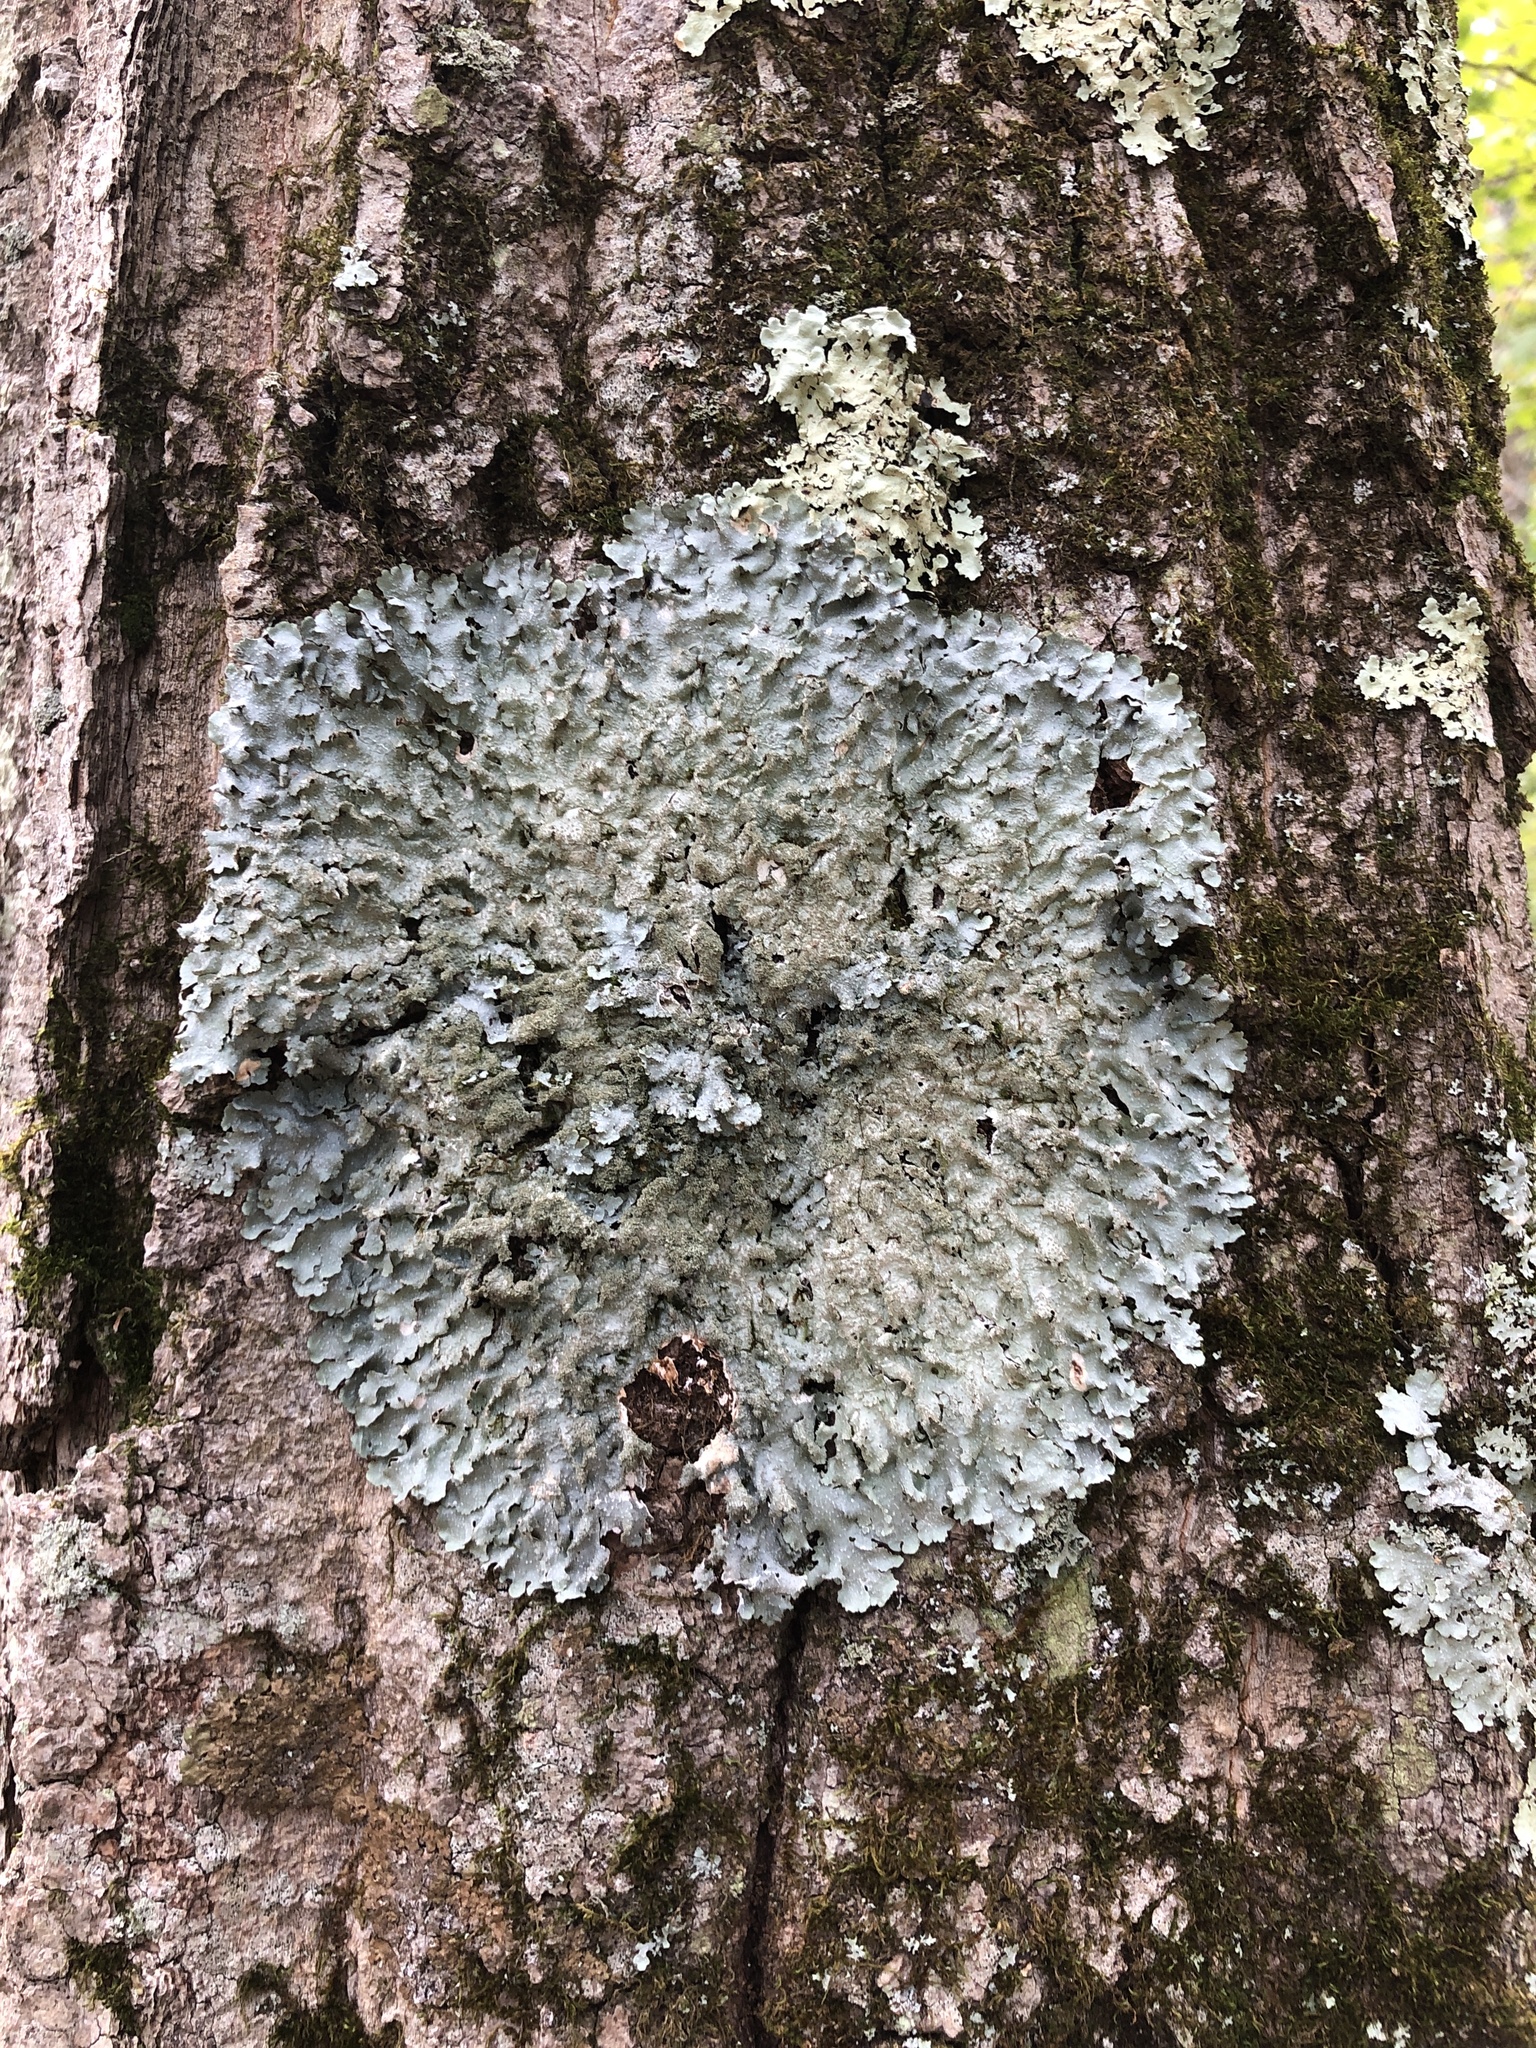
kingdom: Fungi
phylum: Ascomycota
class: Lecanoromycetes
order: Lecanorales
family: Parmeliaceae
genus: Punctelia
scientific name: Punctelia rudecta
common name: Rough speckled shield lichen
